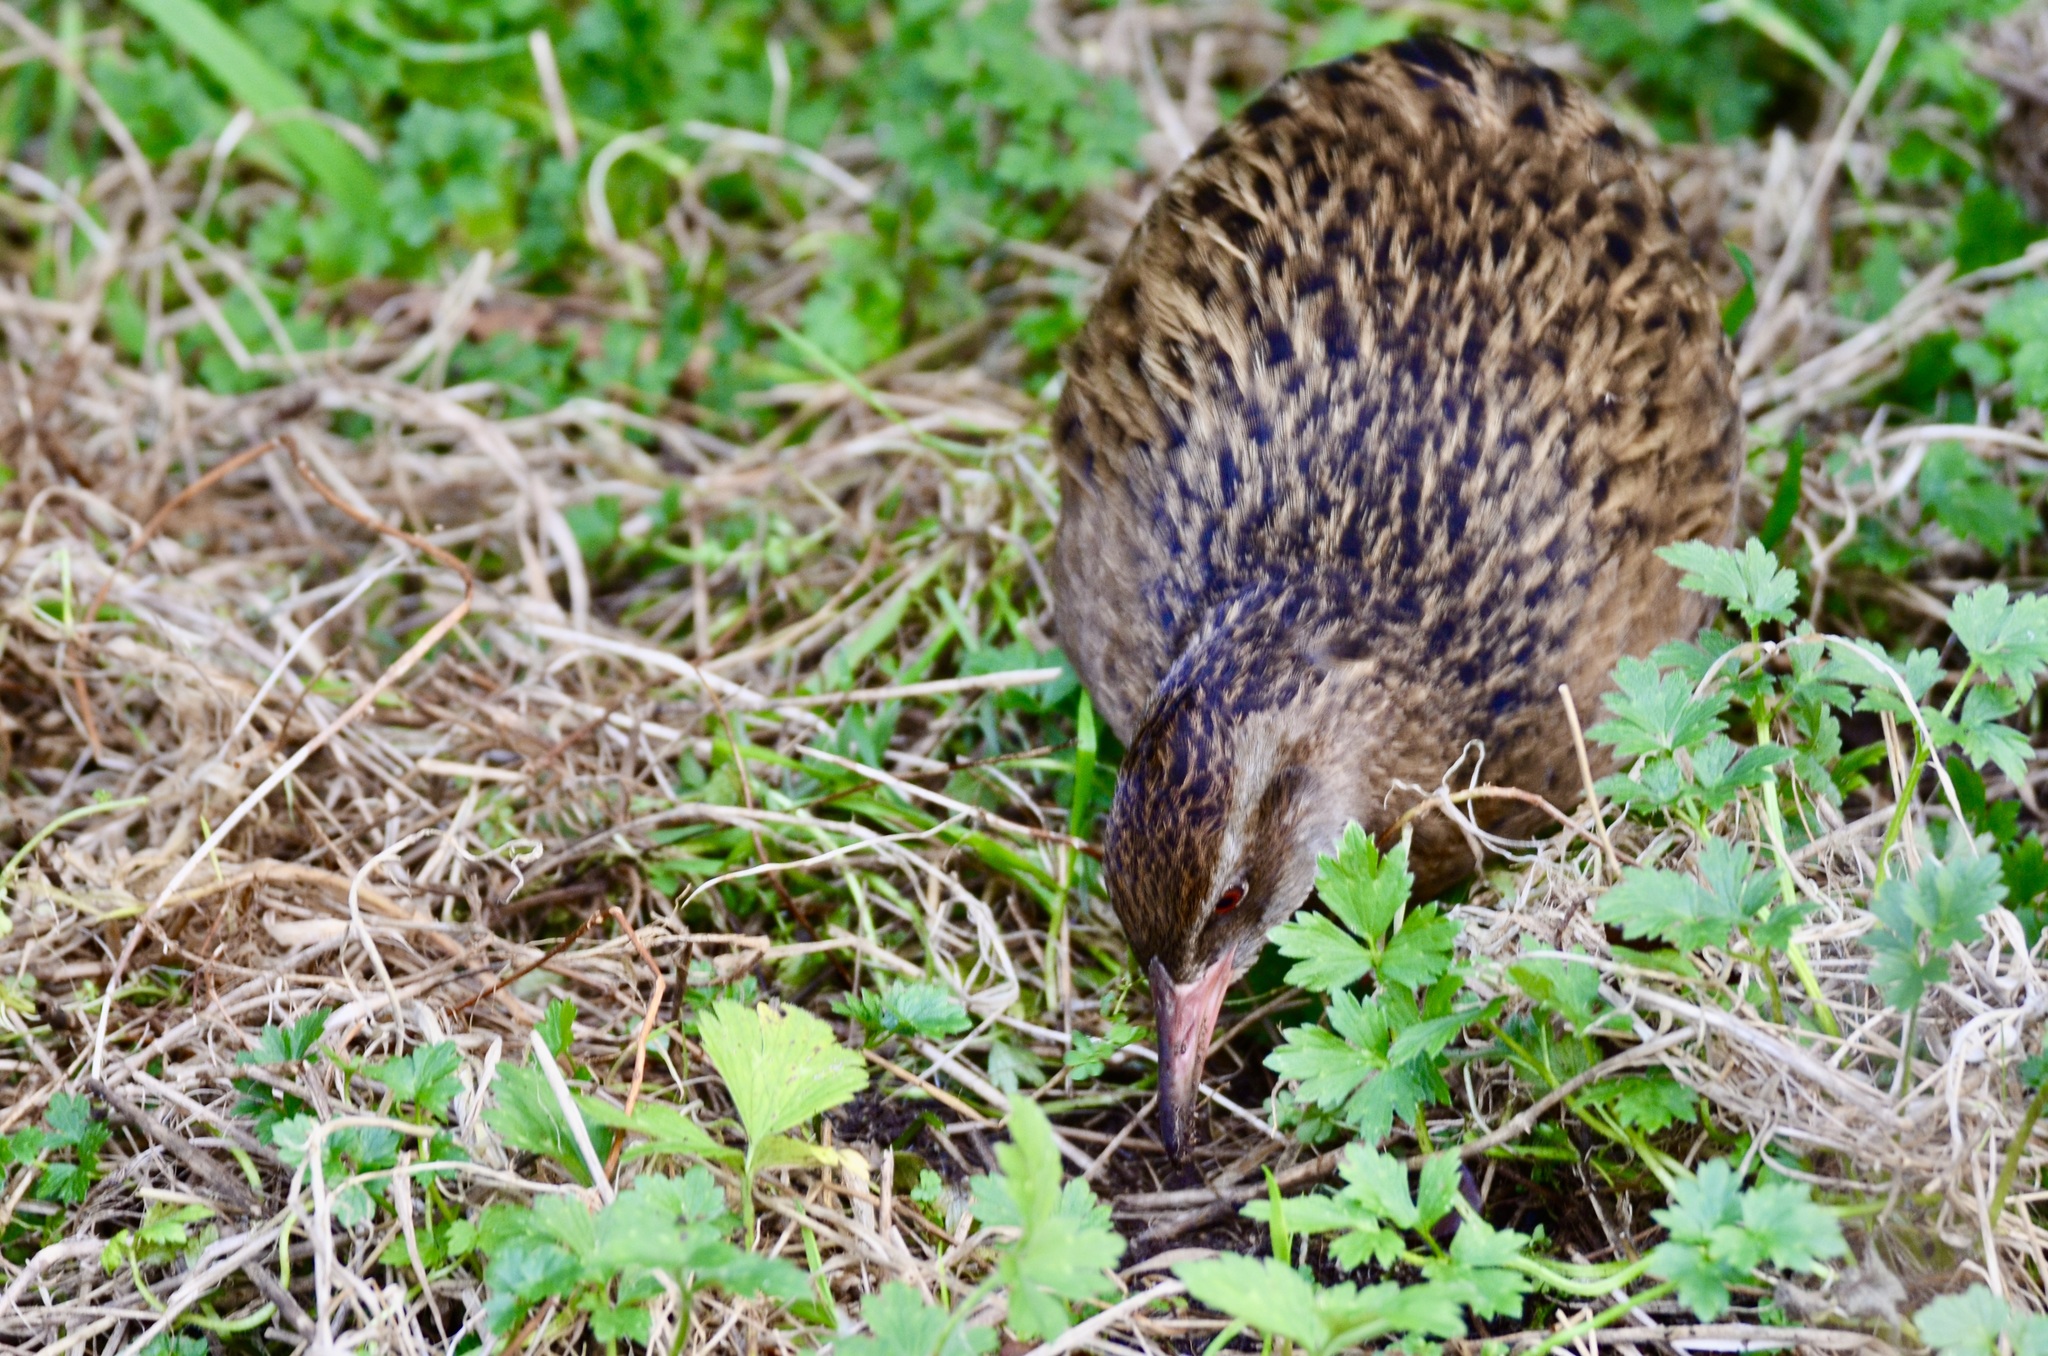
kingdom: Animalia
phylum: Chordata
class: Aves
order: Gruiformes
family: Rallidae
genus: Gallirallus
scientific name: Gallirallus australis
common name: Weka
